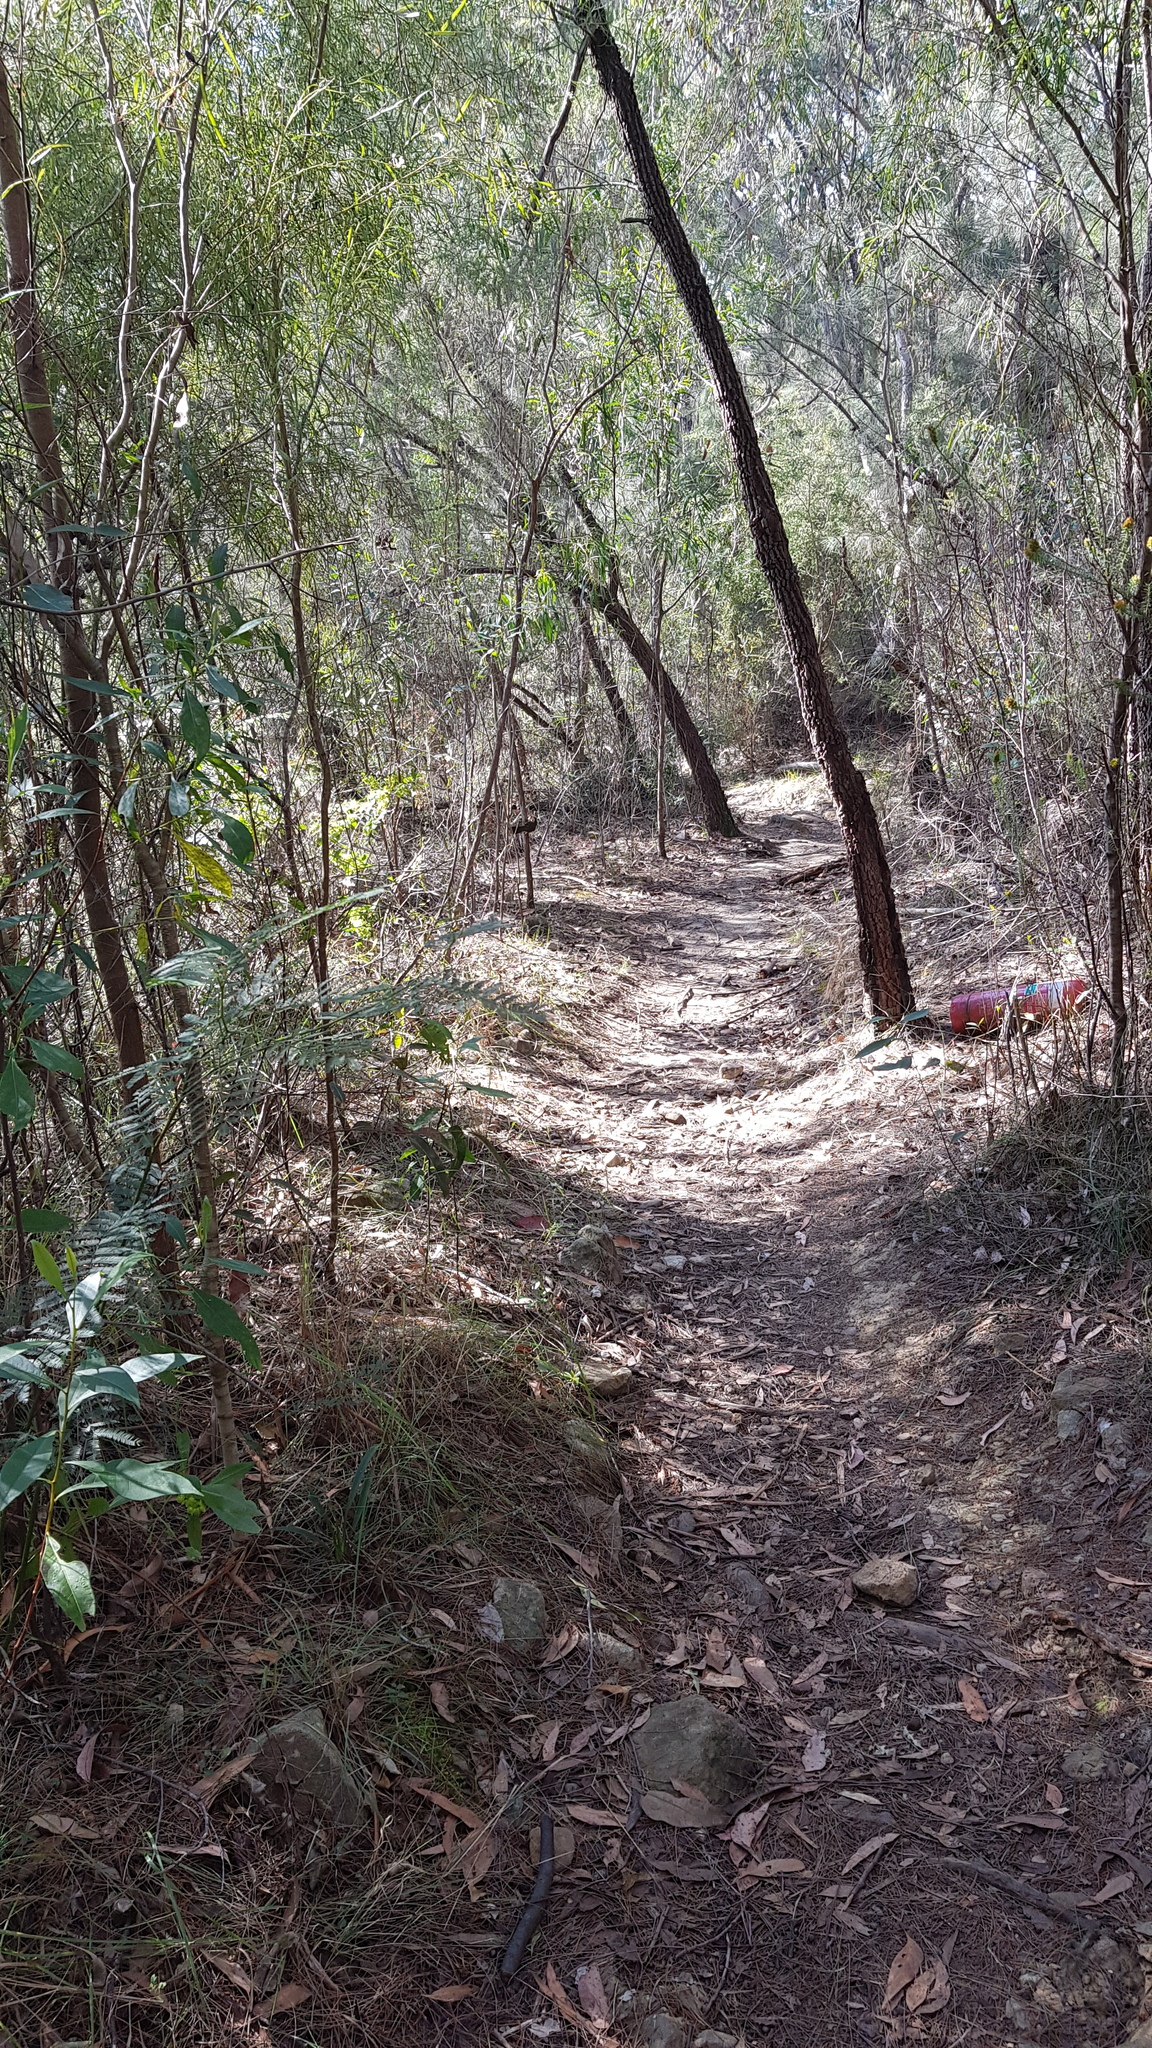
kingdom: Animalia
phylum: Chordata
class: Aves
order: Passeriformes
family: Psophodidae
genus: Psophodes
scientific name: Psophodes olivaceus
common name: Eastern whipbird
